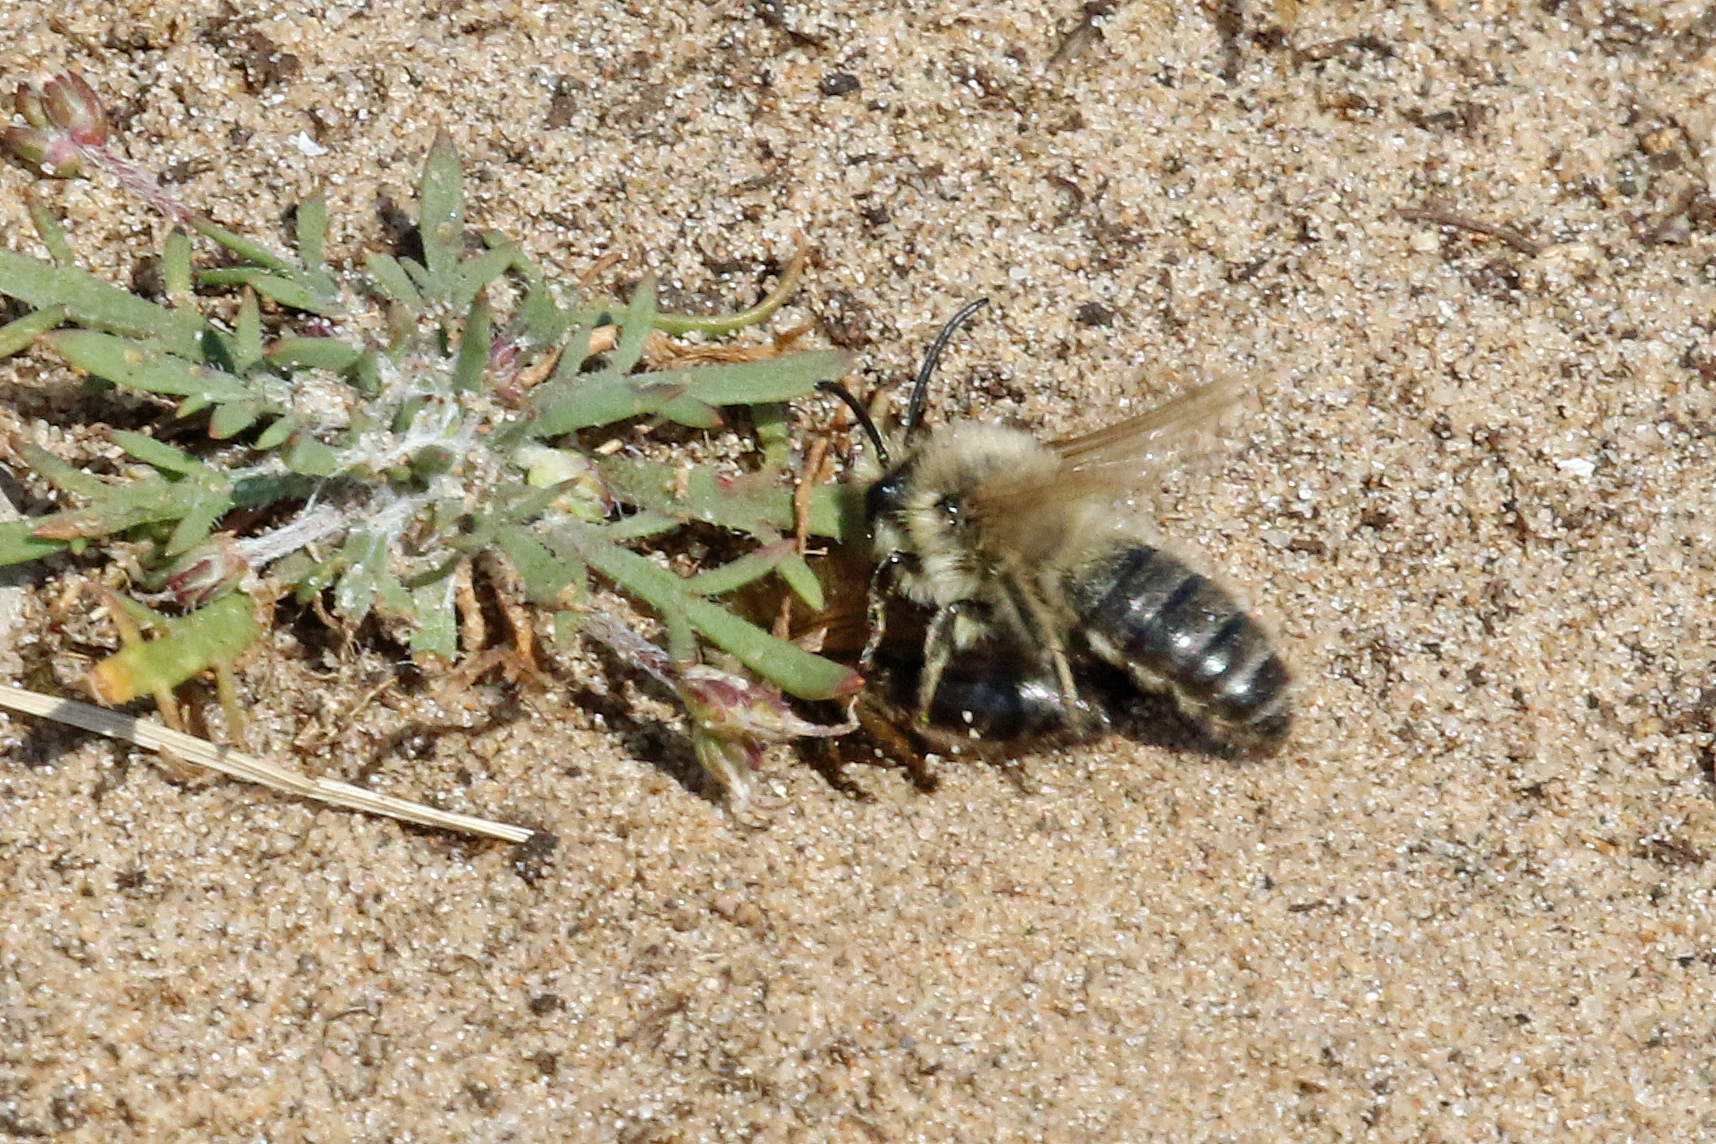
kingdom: Animalia
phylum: Arthropoda
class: Insecta
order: Hymenoptera
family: Colletidae
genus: Colletes
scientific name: Colletes cunicularius
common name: Early colletes
